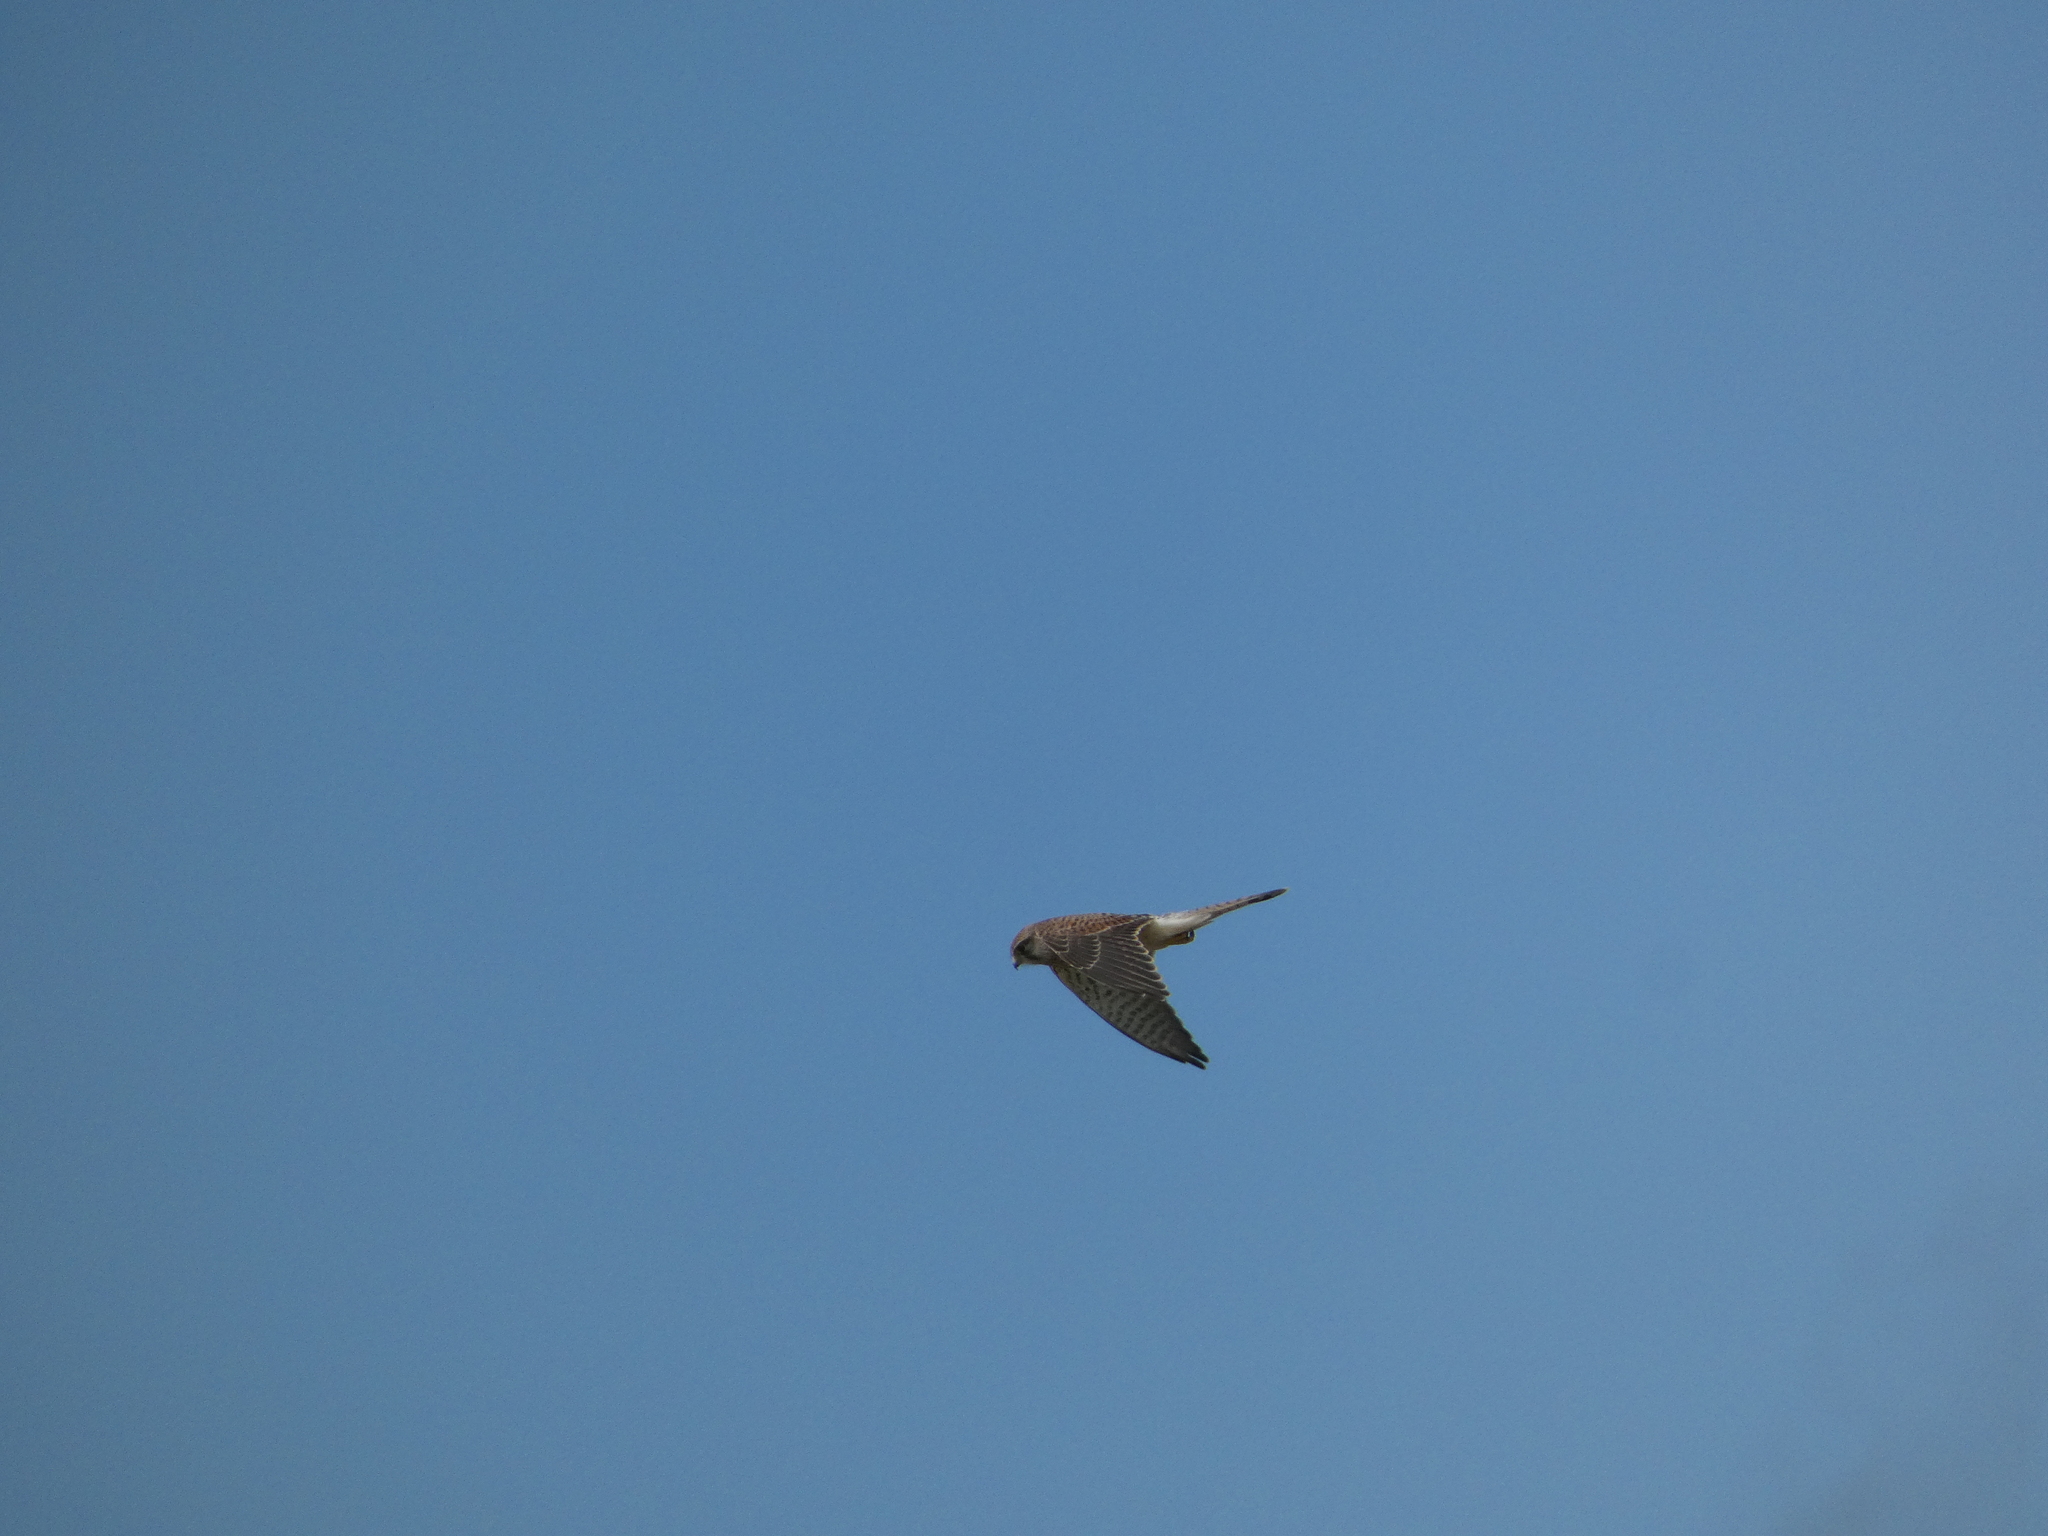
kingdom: Animalia
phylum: Chordata
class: Aves
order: Falconiformes
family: Falconidae
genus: Falco
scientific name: Falco tinnunculus
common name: Common kestrel
